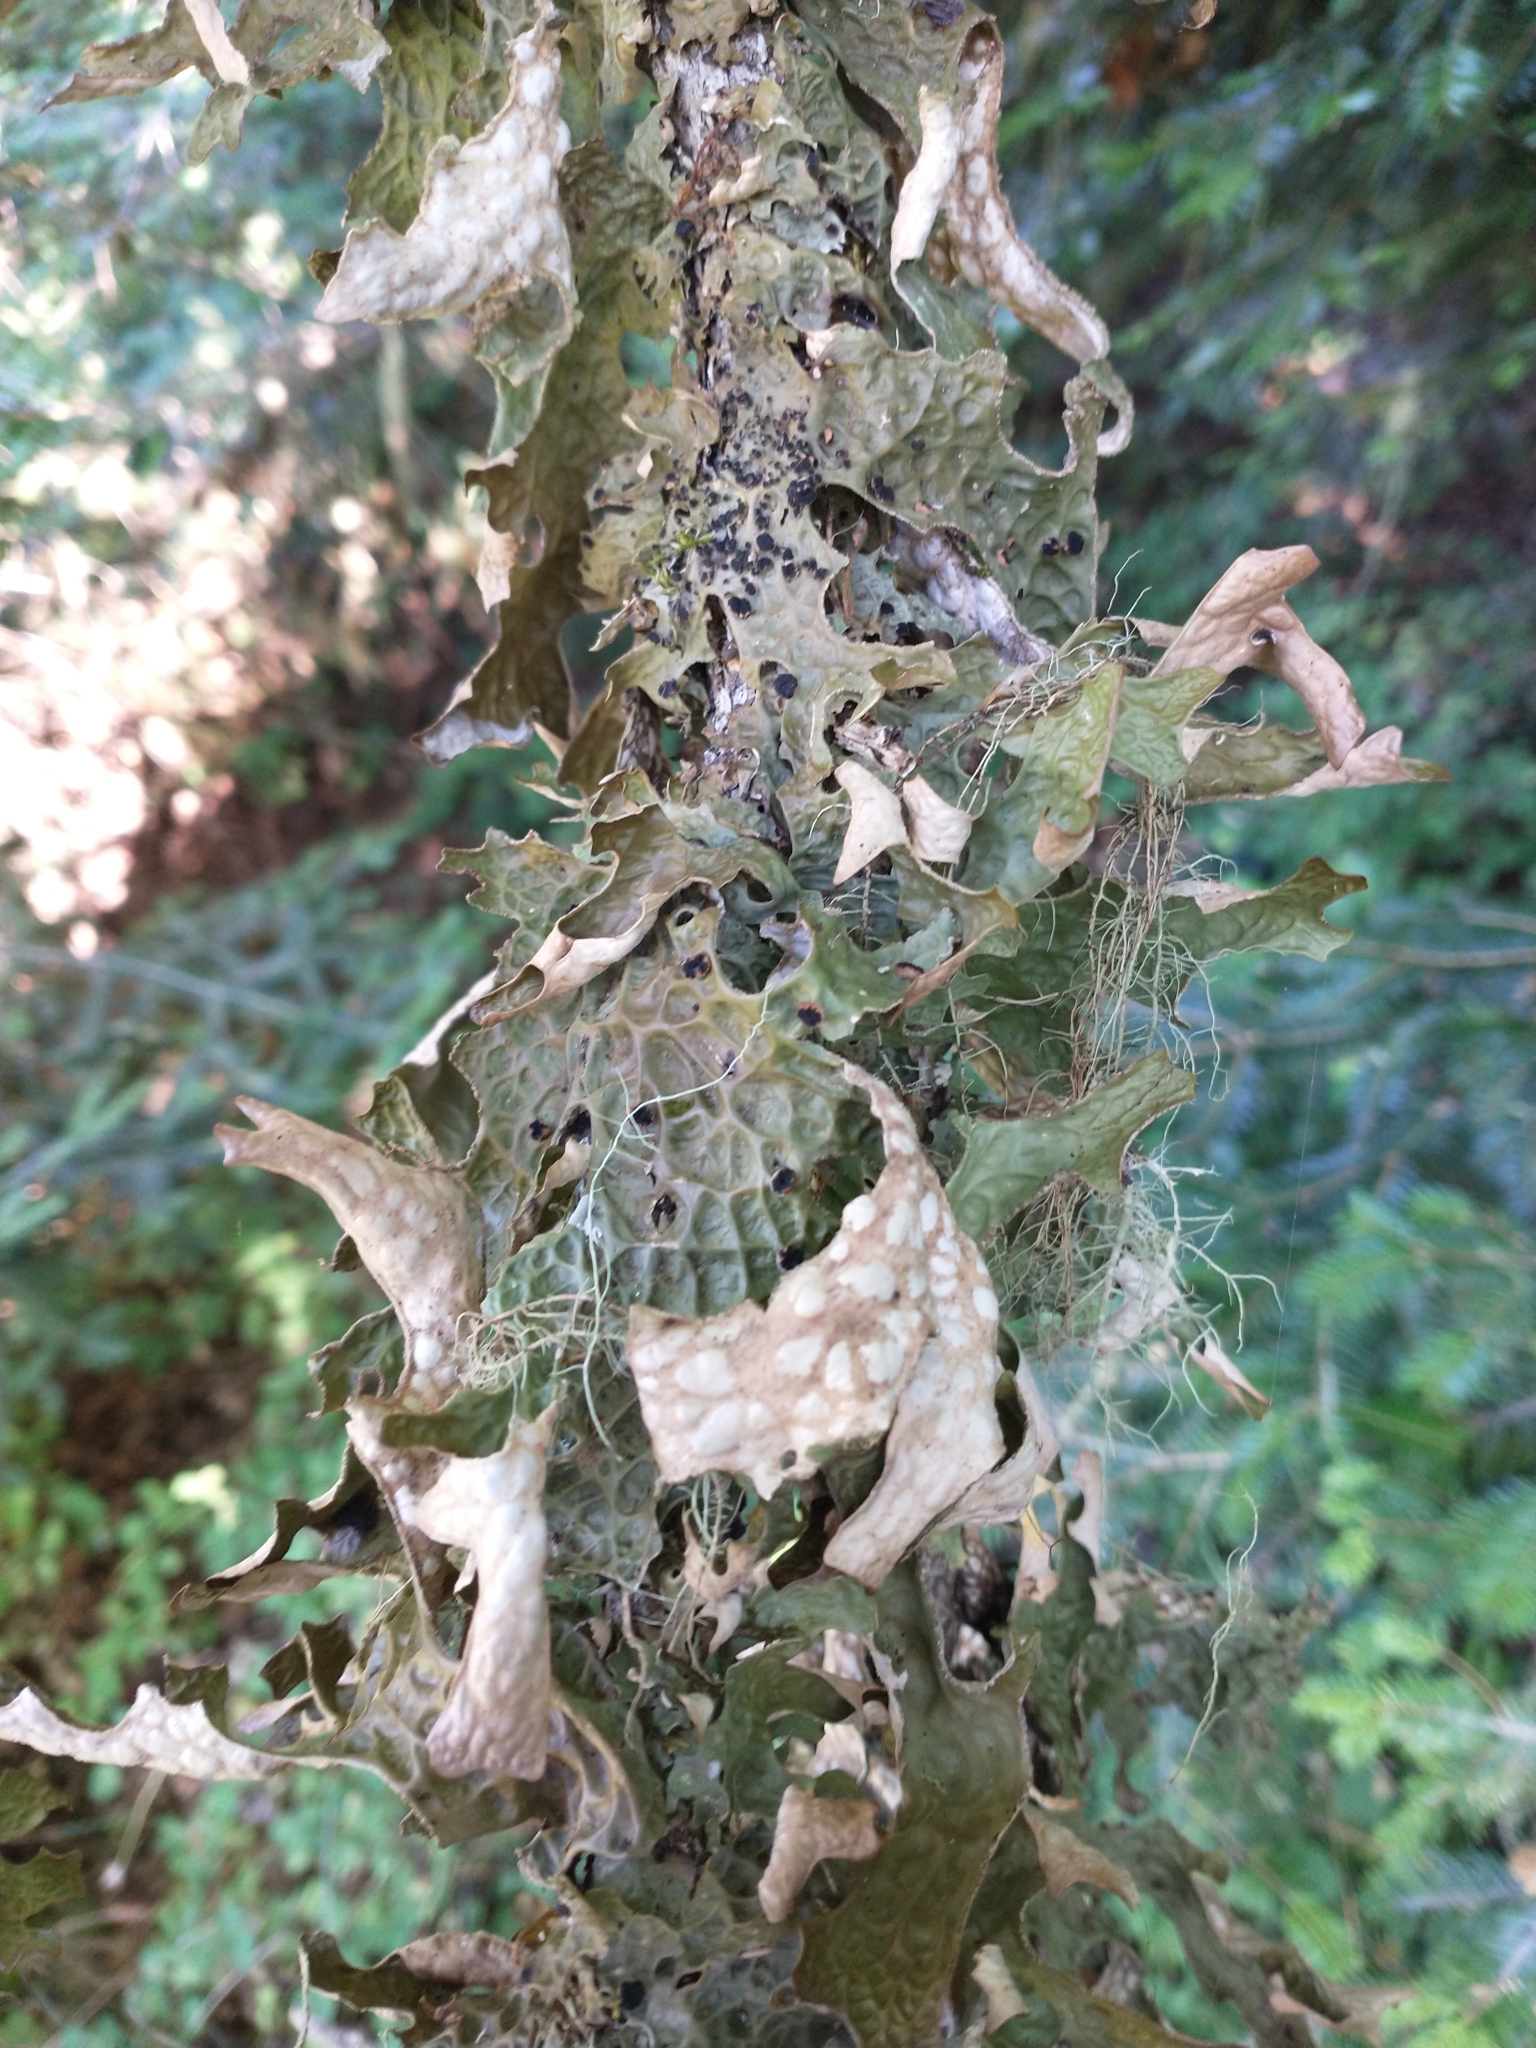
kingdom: Fungi
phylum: Ascomycota
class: Lecanoromycetes
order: Peltigerales
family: Lobariaceae
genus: Lobaria
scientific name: Lobaria pulmonaria
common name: Lungwort
